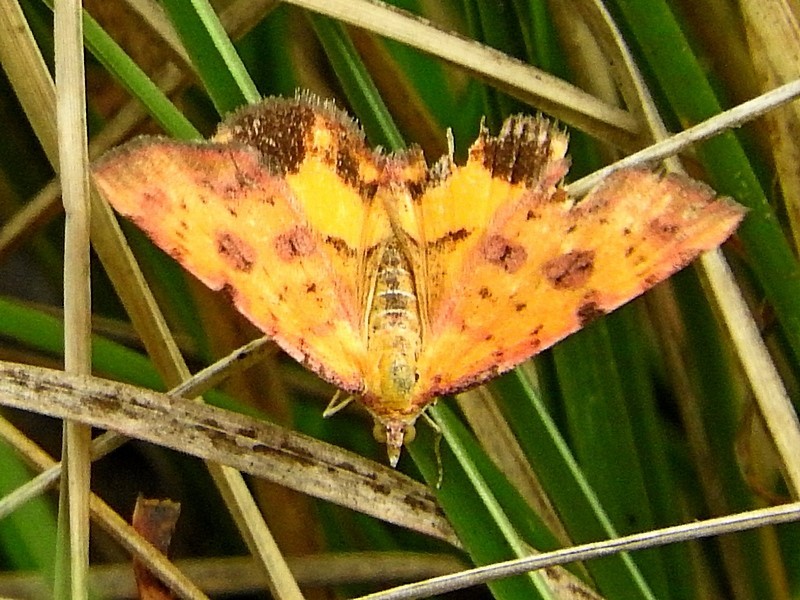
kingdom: Animalia
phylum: Arthropoda
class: Insecta
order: Lepidoptera
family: Geometridae
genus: Chrysolarentia
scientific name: Chrysolarentia perornata
